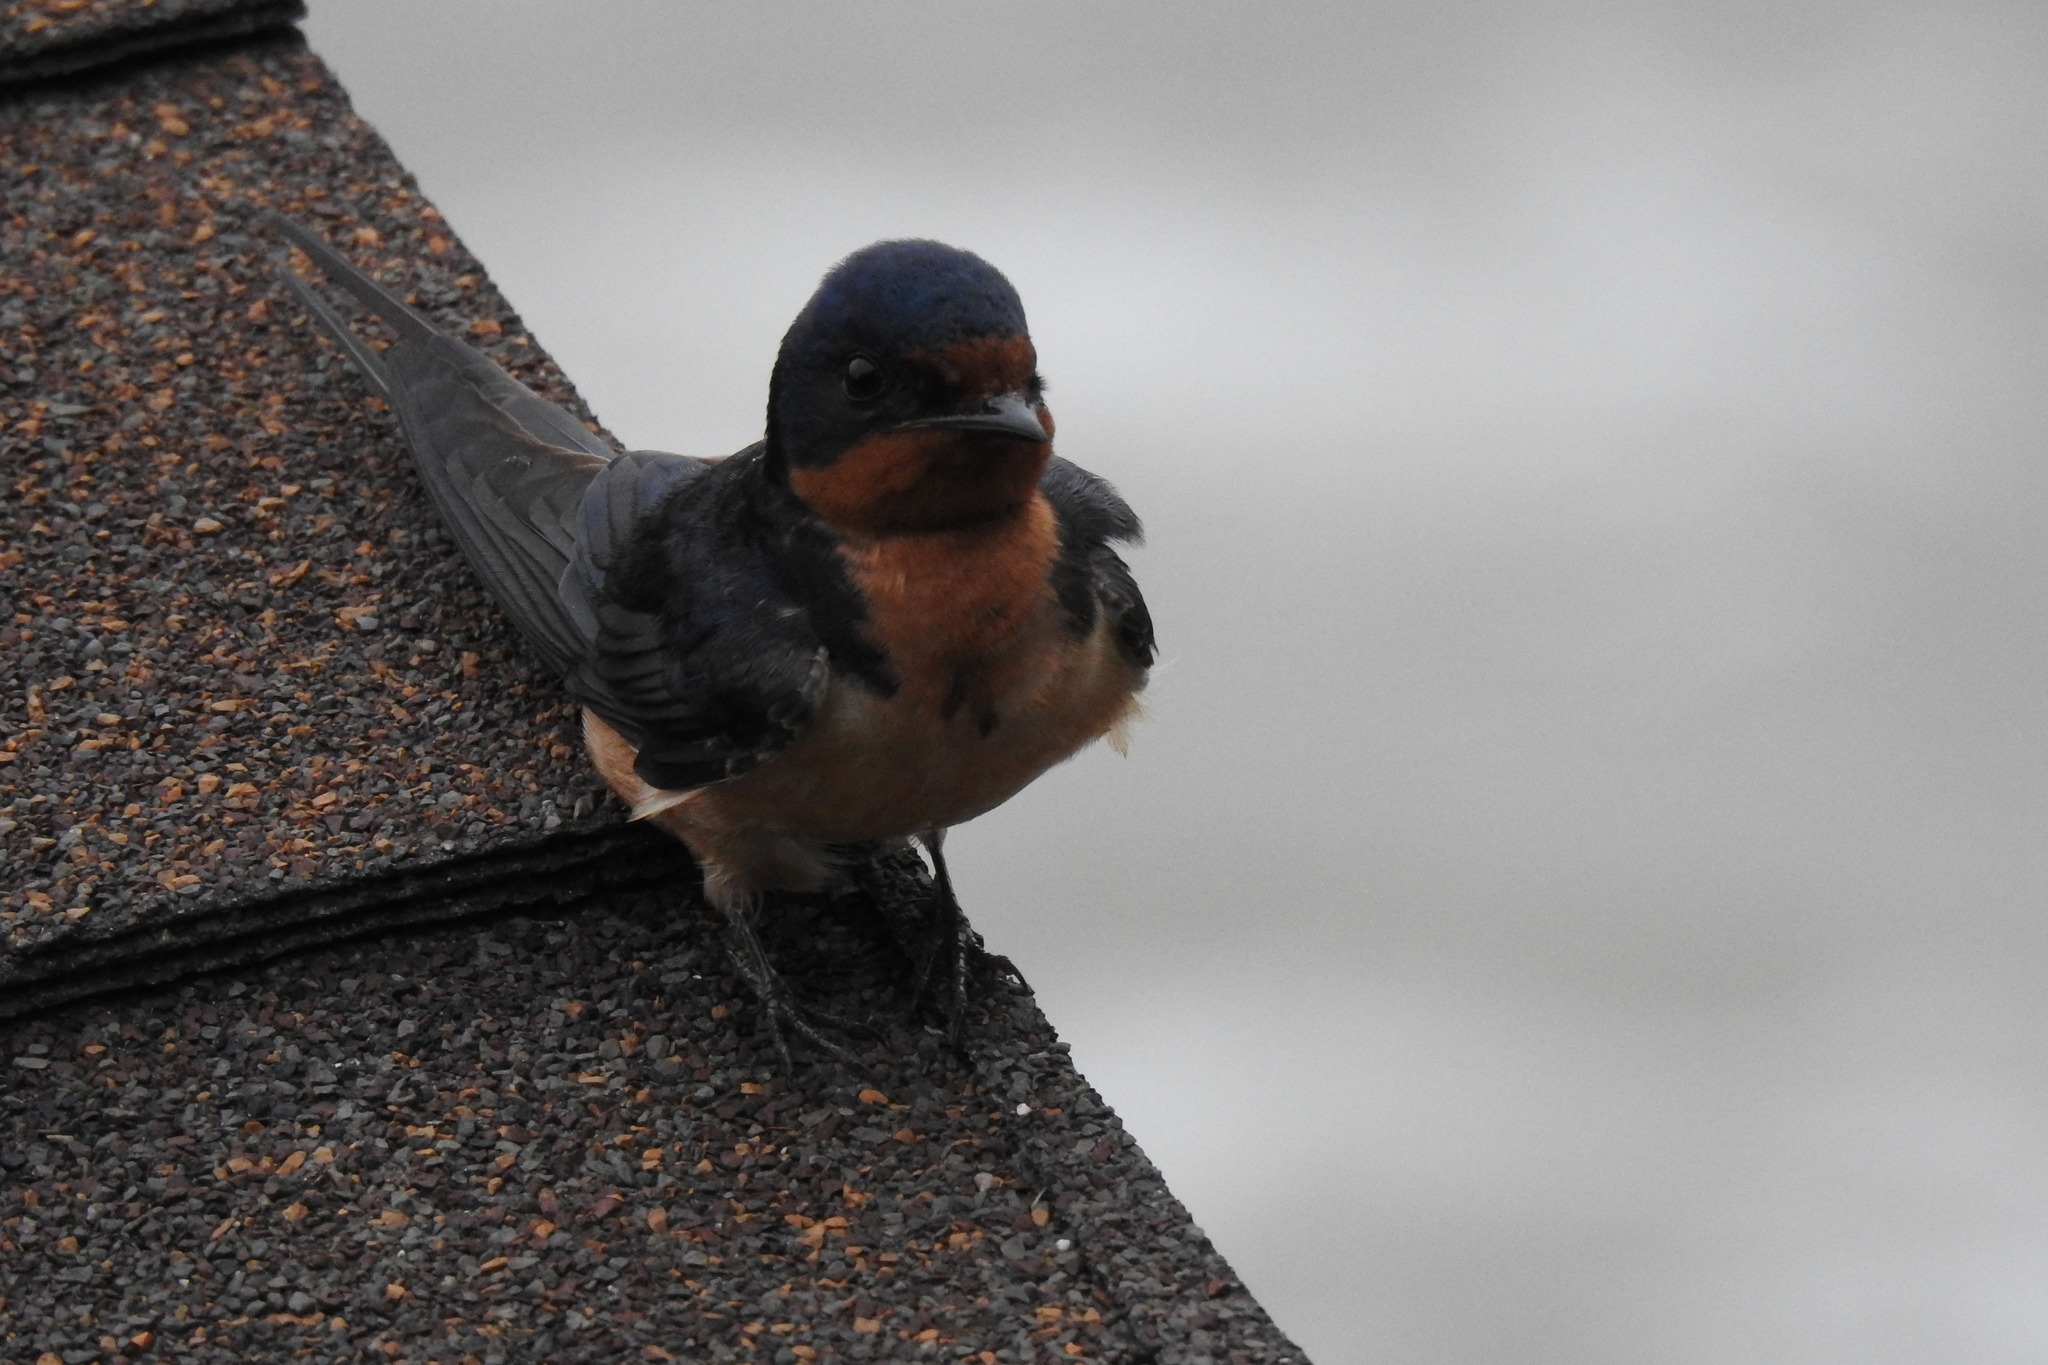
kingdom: Animalia
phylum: Chordata
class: Aves
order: Passeriformes
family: Hirundinidae
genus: Hirundo
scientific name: Hirundo rustica
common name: Barn swallow
